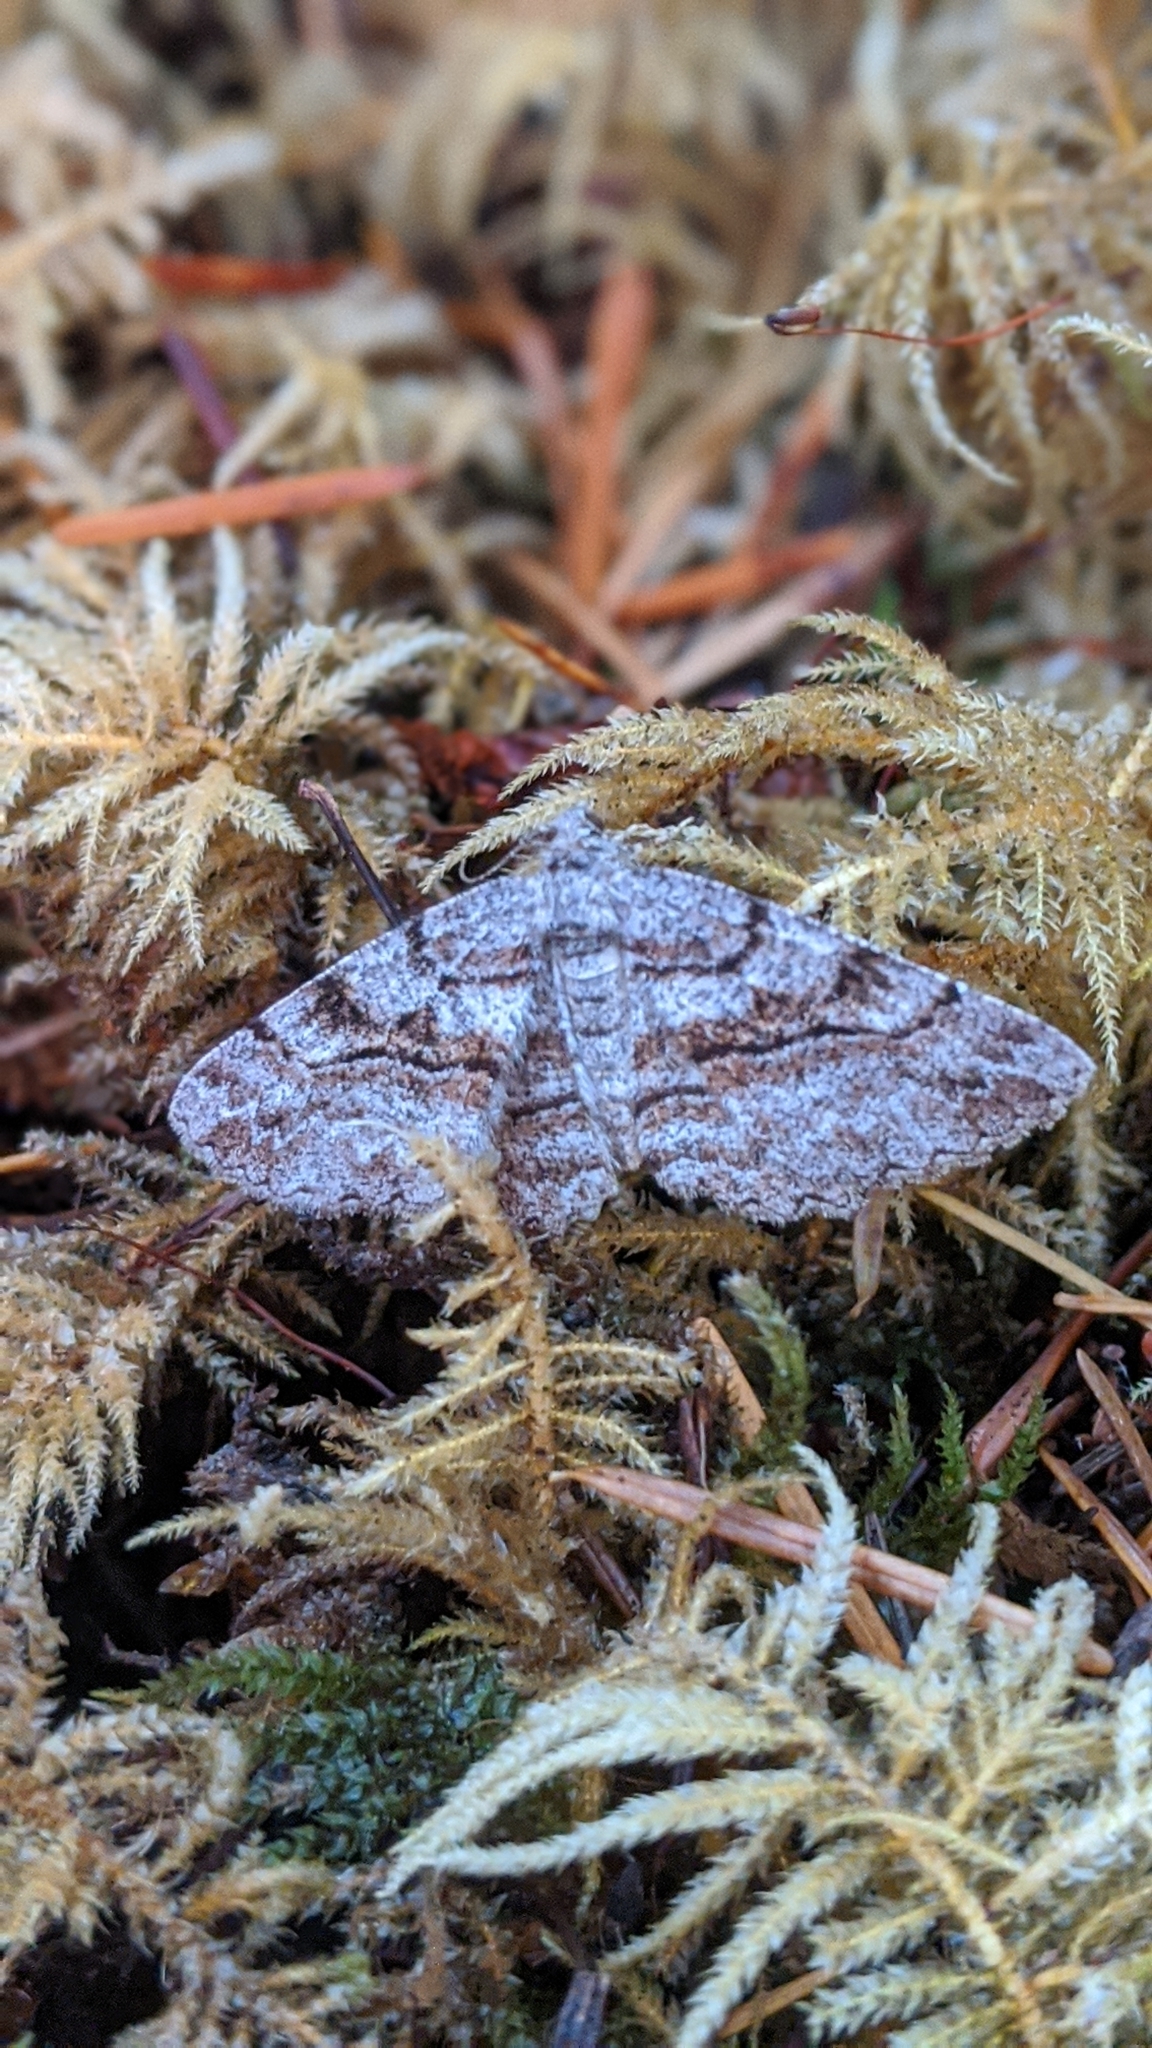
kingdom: Animalia
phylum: Arthropoda
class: Insecta
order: Lepidoptera
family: Geometridae
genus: Neoalcis
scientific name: Neoalcis californiaria
